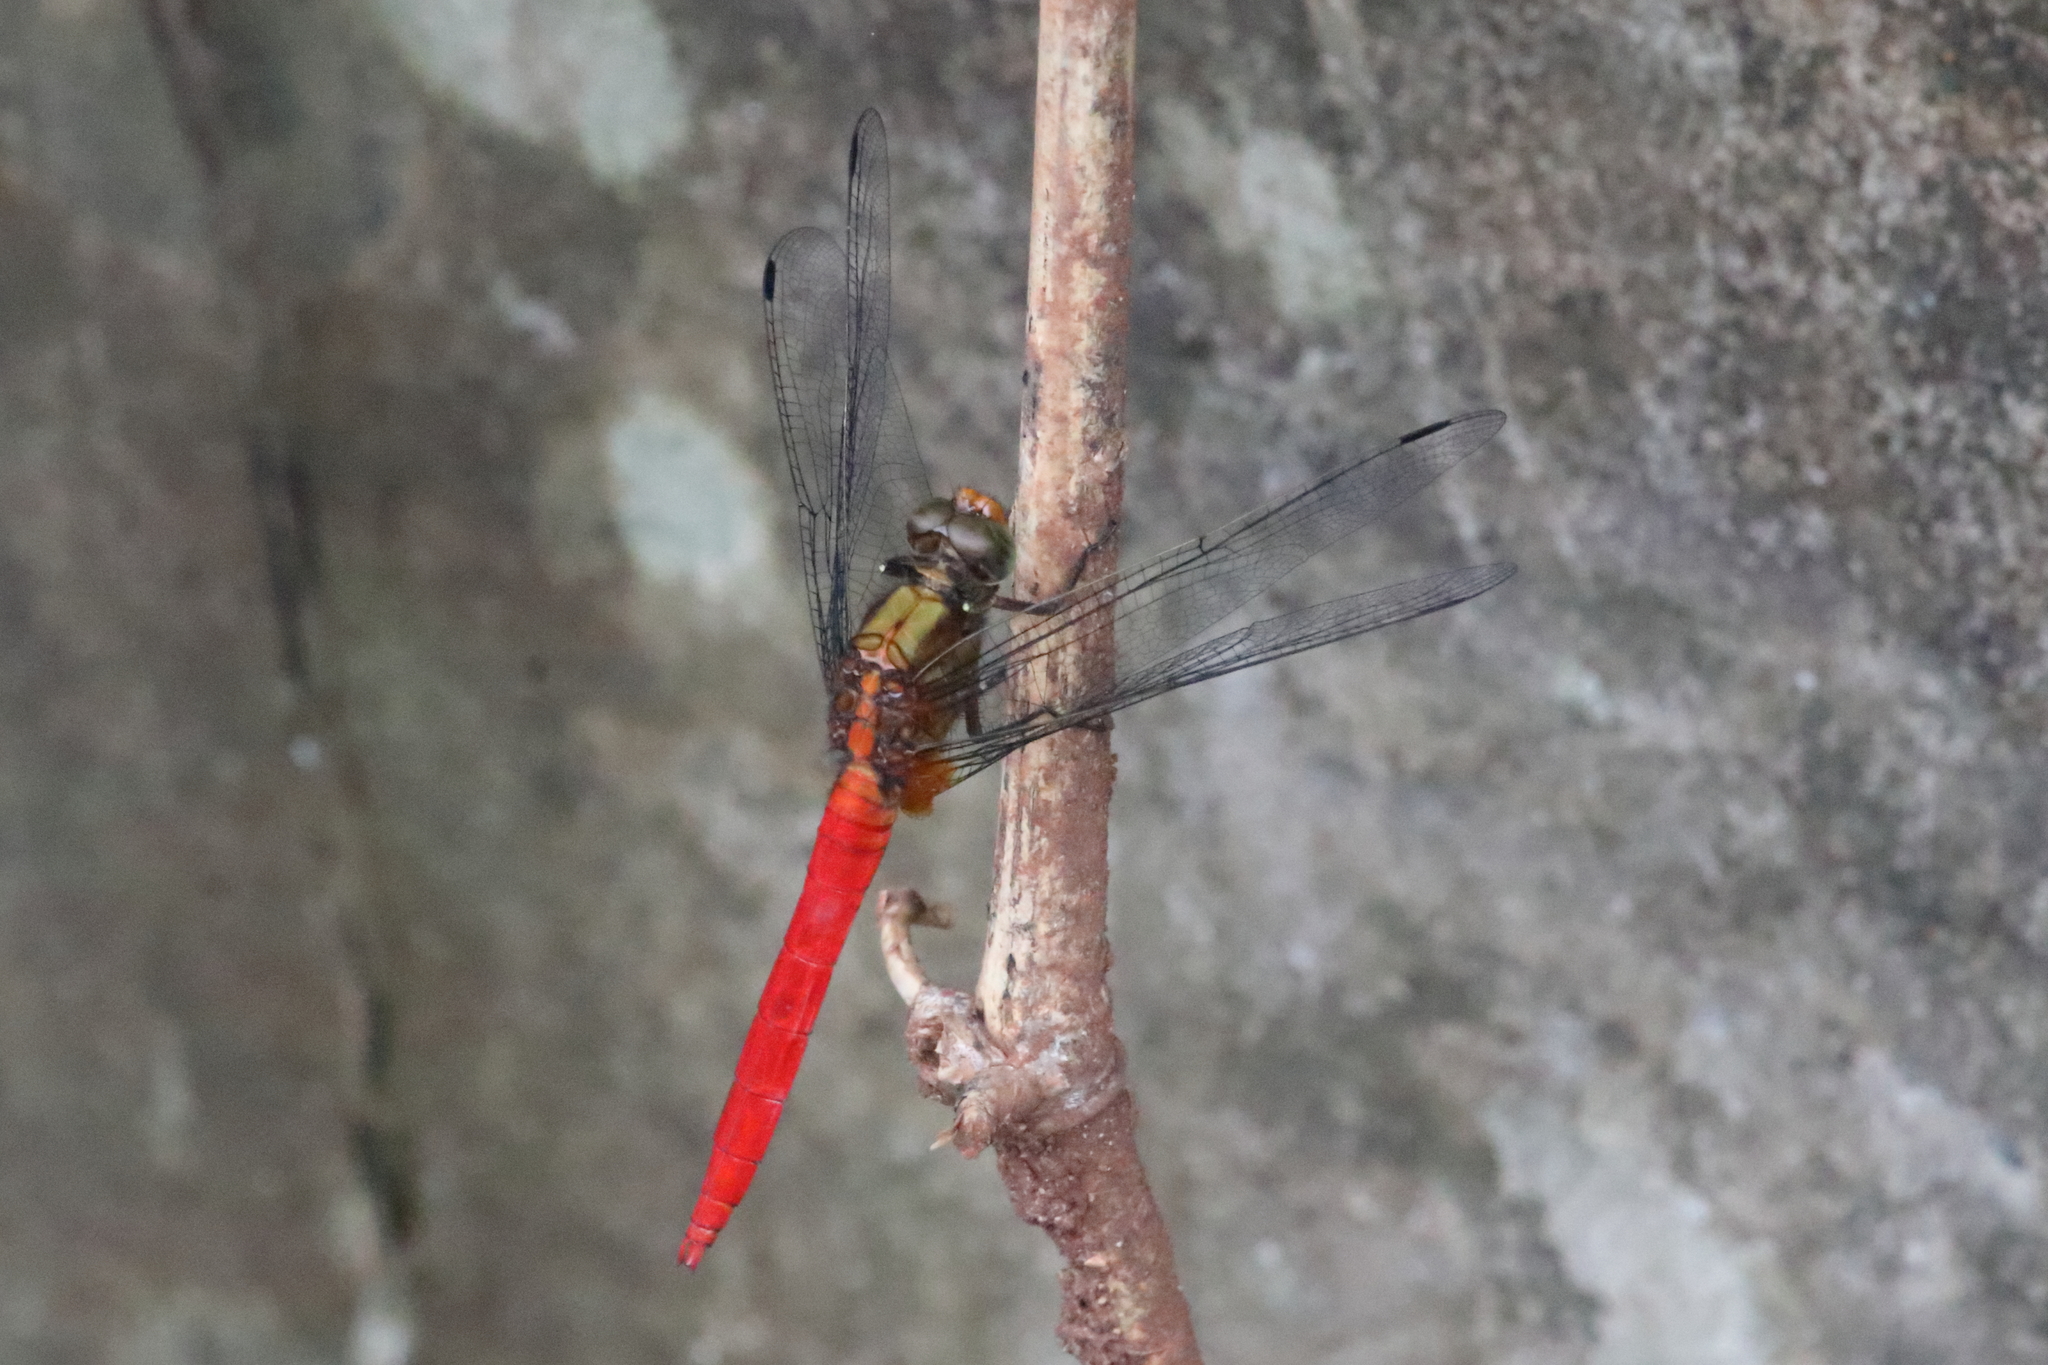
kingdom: Animalia
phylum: Arthropoda
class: Insecta
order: Odonata
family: Libellulidae
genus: Orthetrum
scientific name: Orthetrum testaceum
